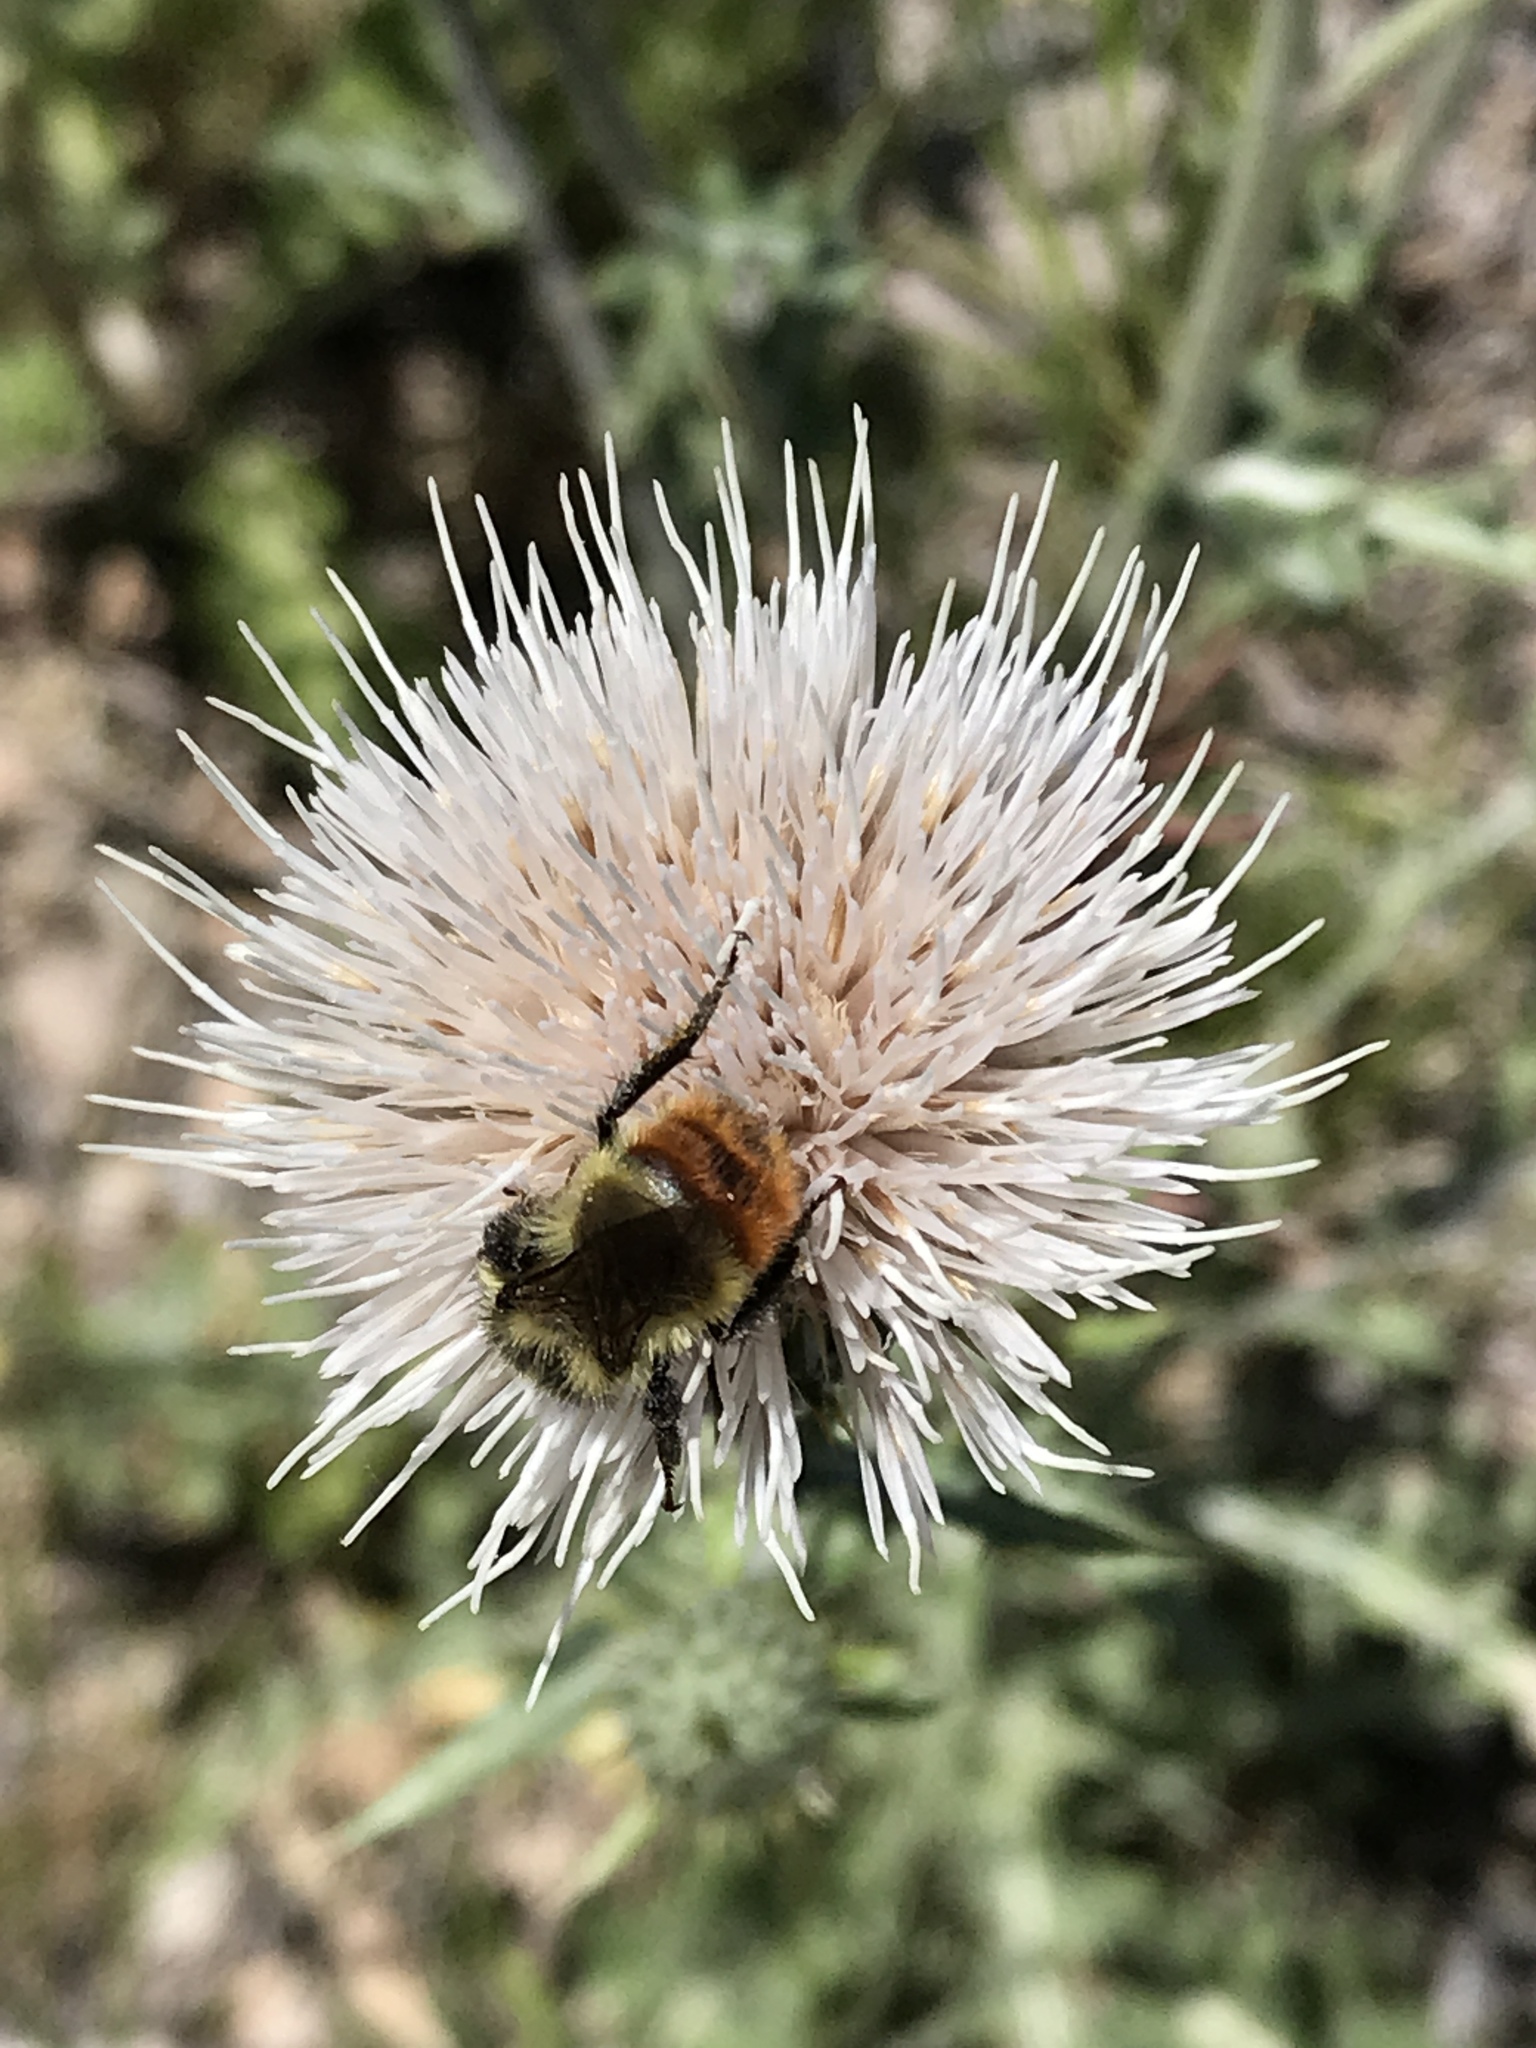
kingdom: Animalia
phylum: Arthropoda
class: Insecta
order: Hymenoptera
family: Apidae
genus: Bombus
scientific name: Bombus centralis
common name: Central bumble bee
